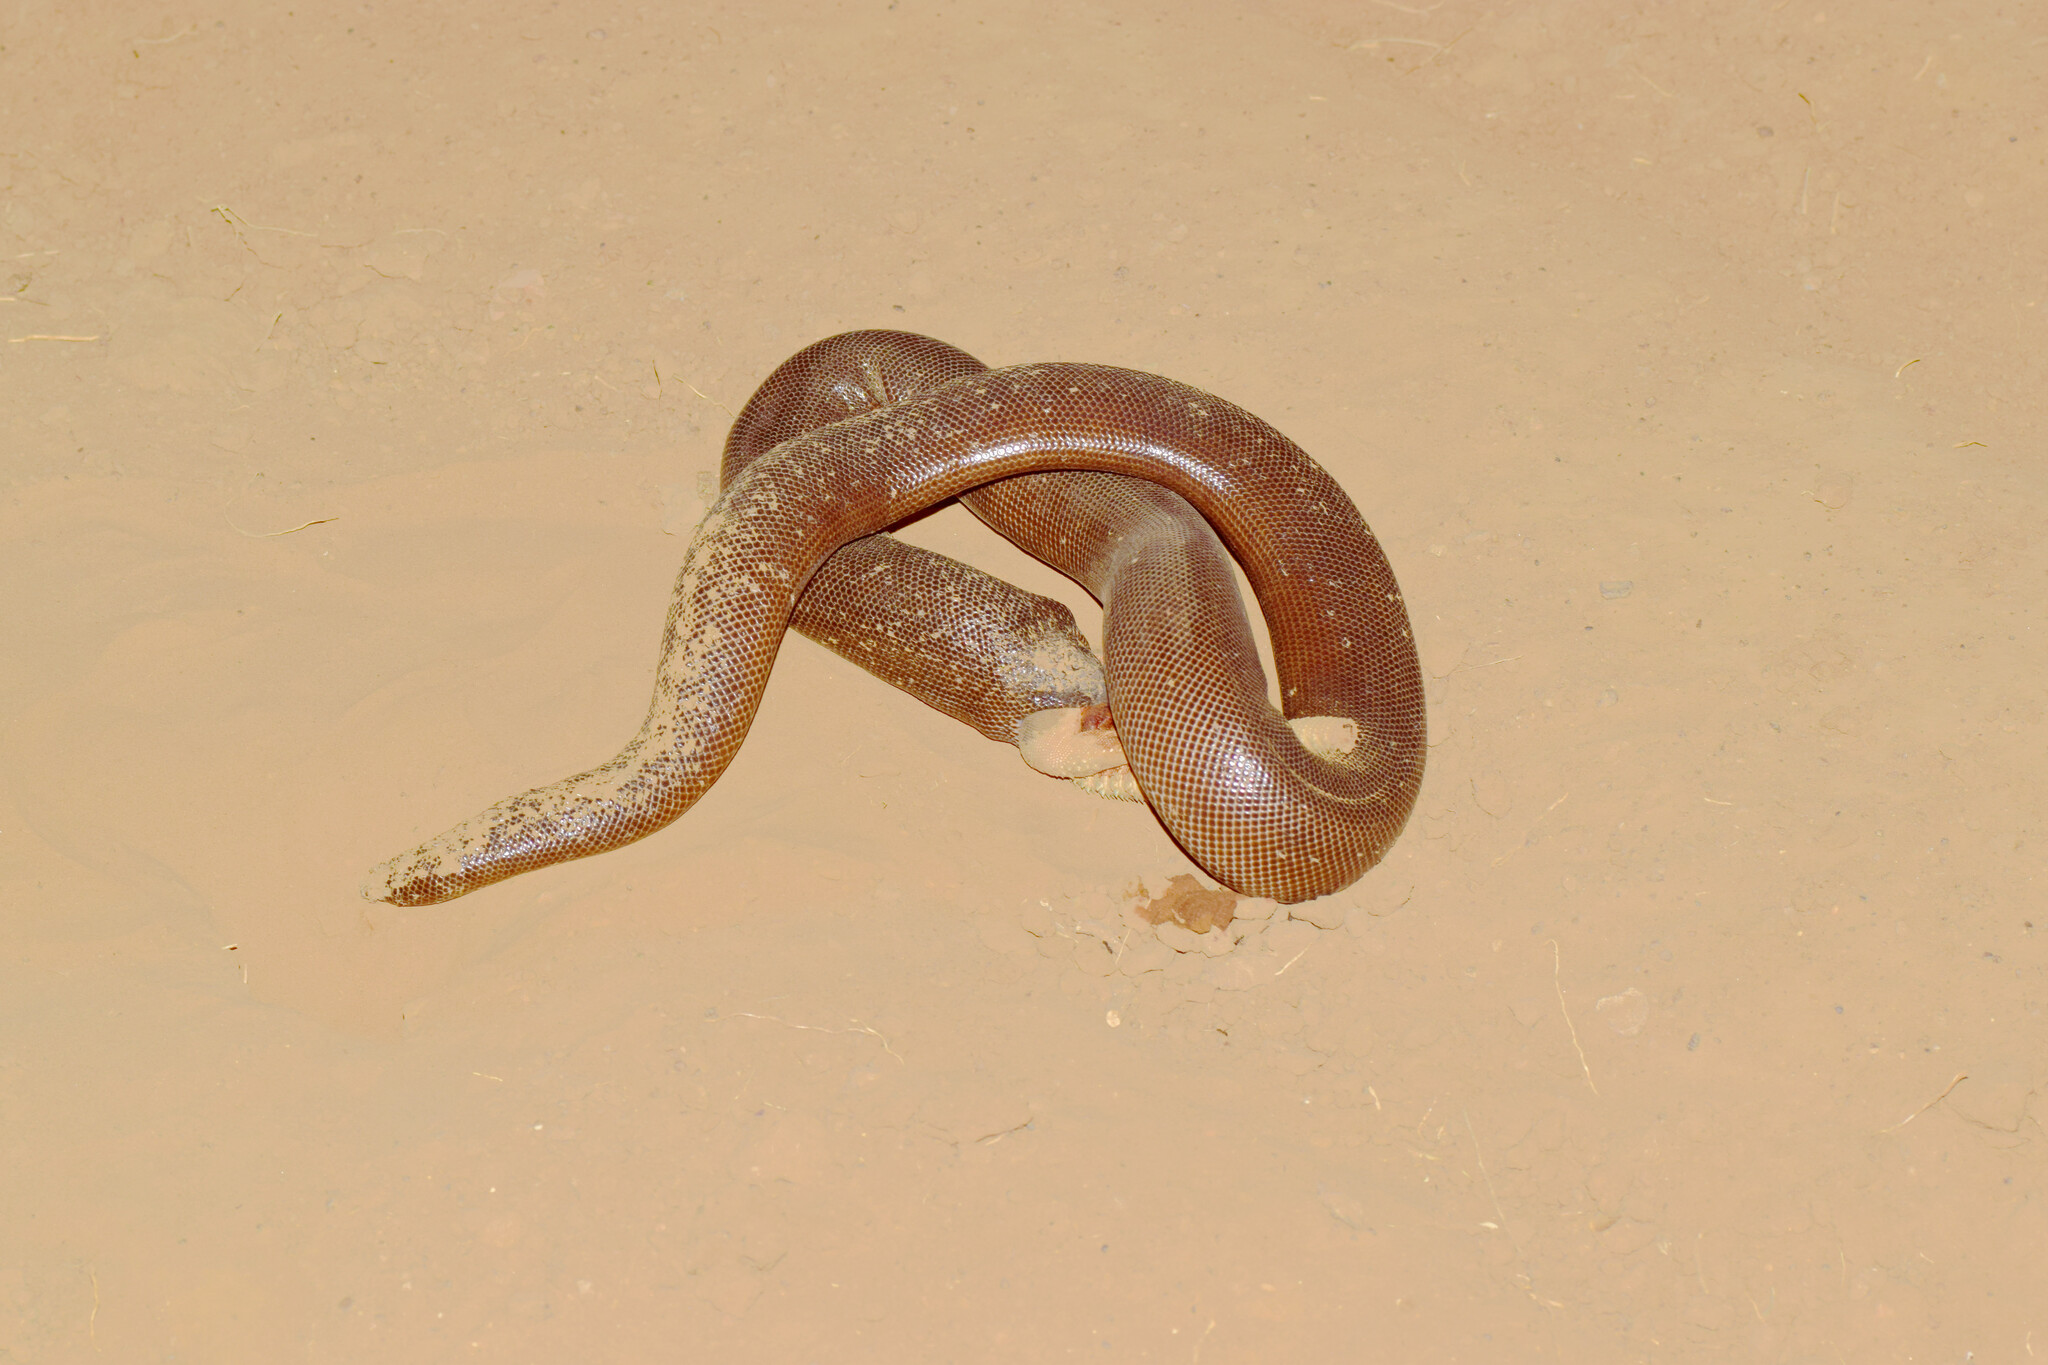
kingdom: Animalia
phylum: Chordata
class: Squamata
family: Boidae
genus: Eryx
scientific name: Eryx johnii
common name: Brown sand boa
